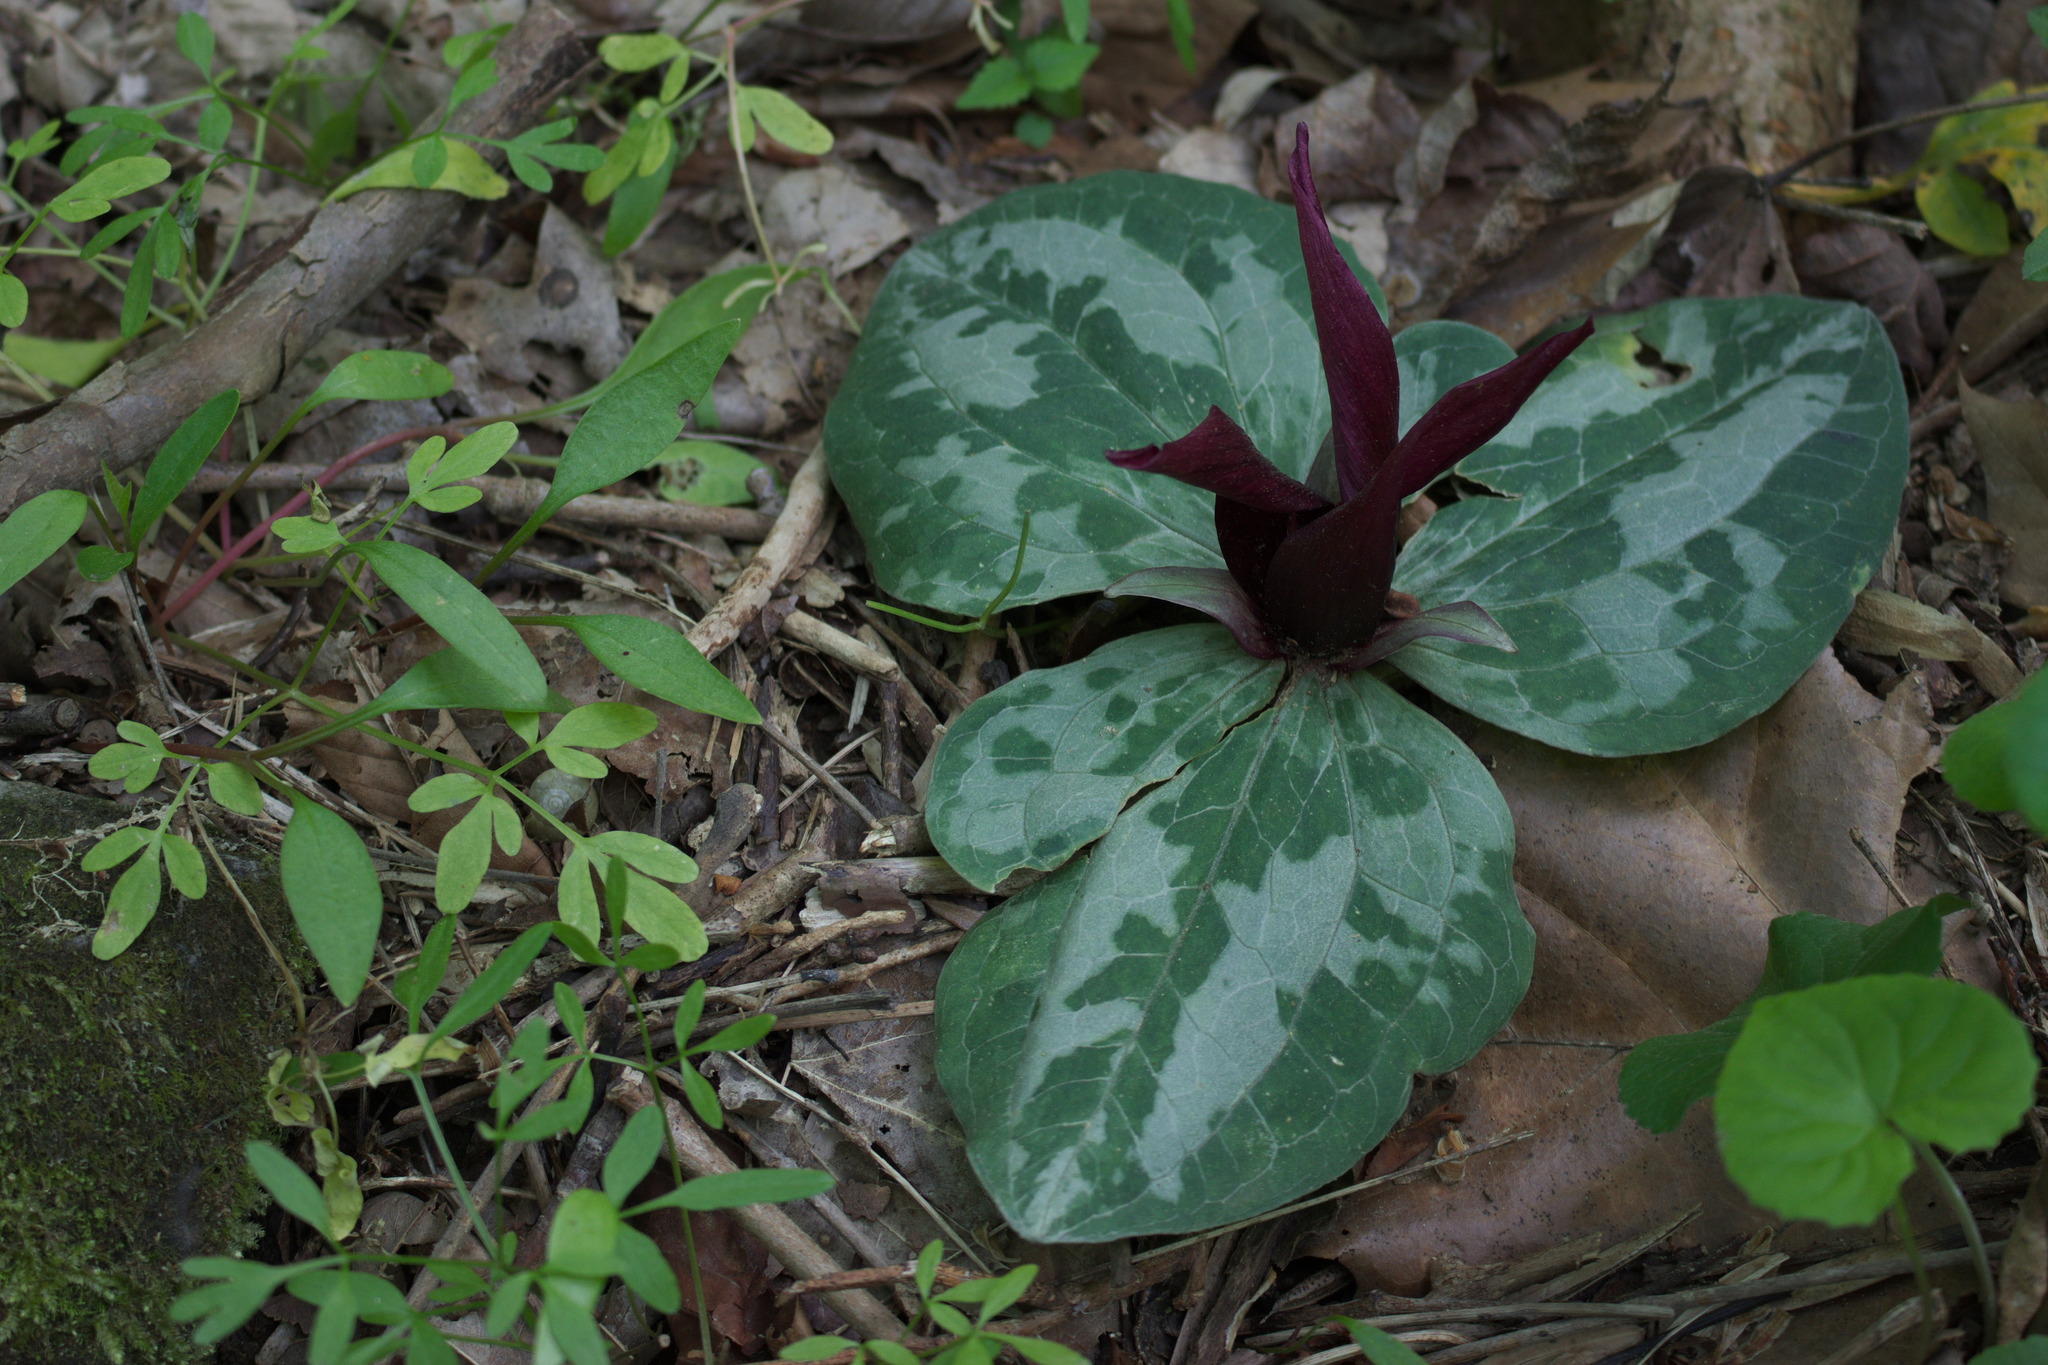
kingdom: Plantae
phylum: Tracheophyta
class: Liliopsida
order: Liliales
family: Melanthiaceae
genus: Trillium
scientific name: Trillium decumbens
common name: Decumbent trillium
